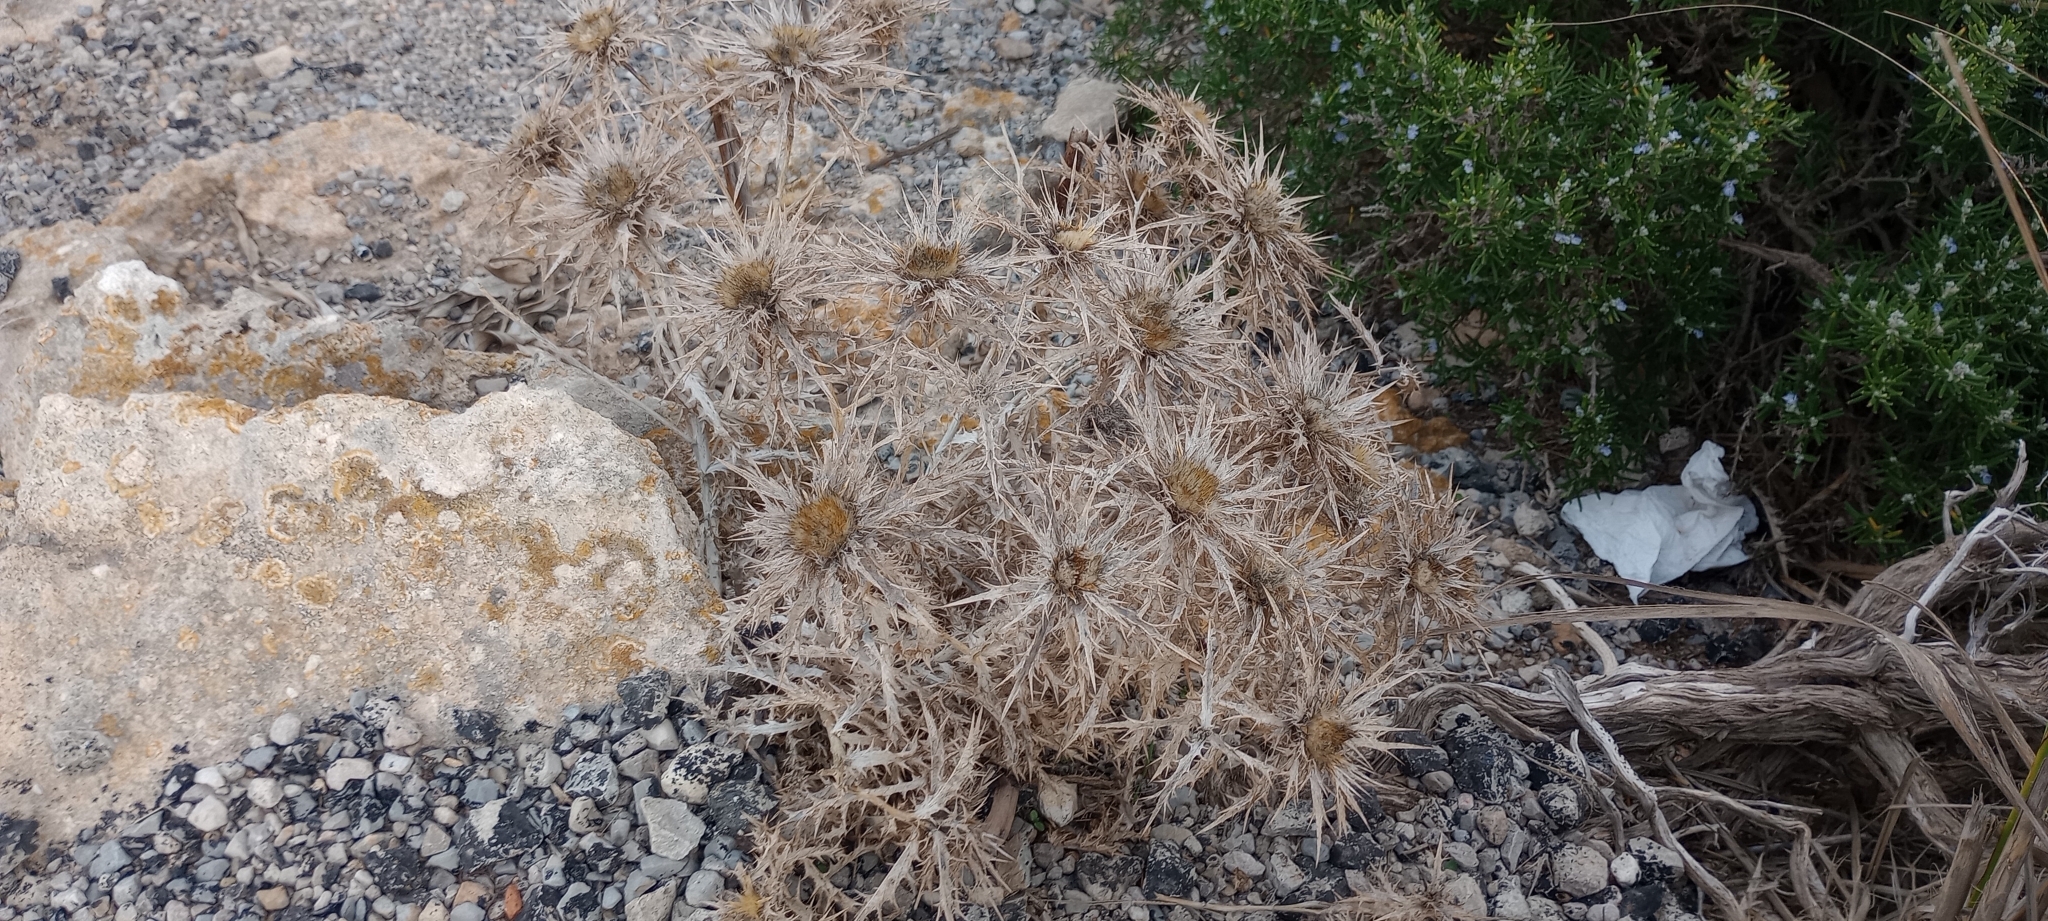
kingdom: Plantae
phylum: Tracheophyta
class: Magnoliopsida
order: Asterales
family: Asteraceae
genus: Carlina
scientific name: Carlina corymbosa
